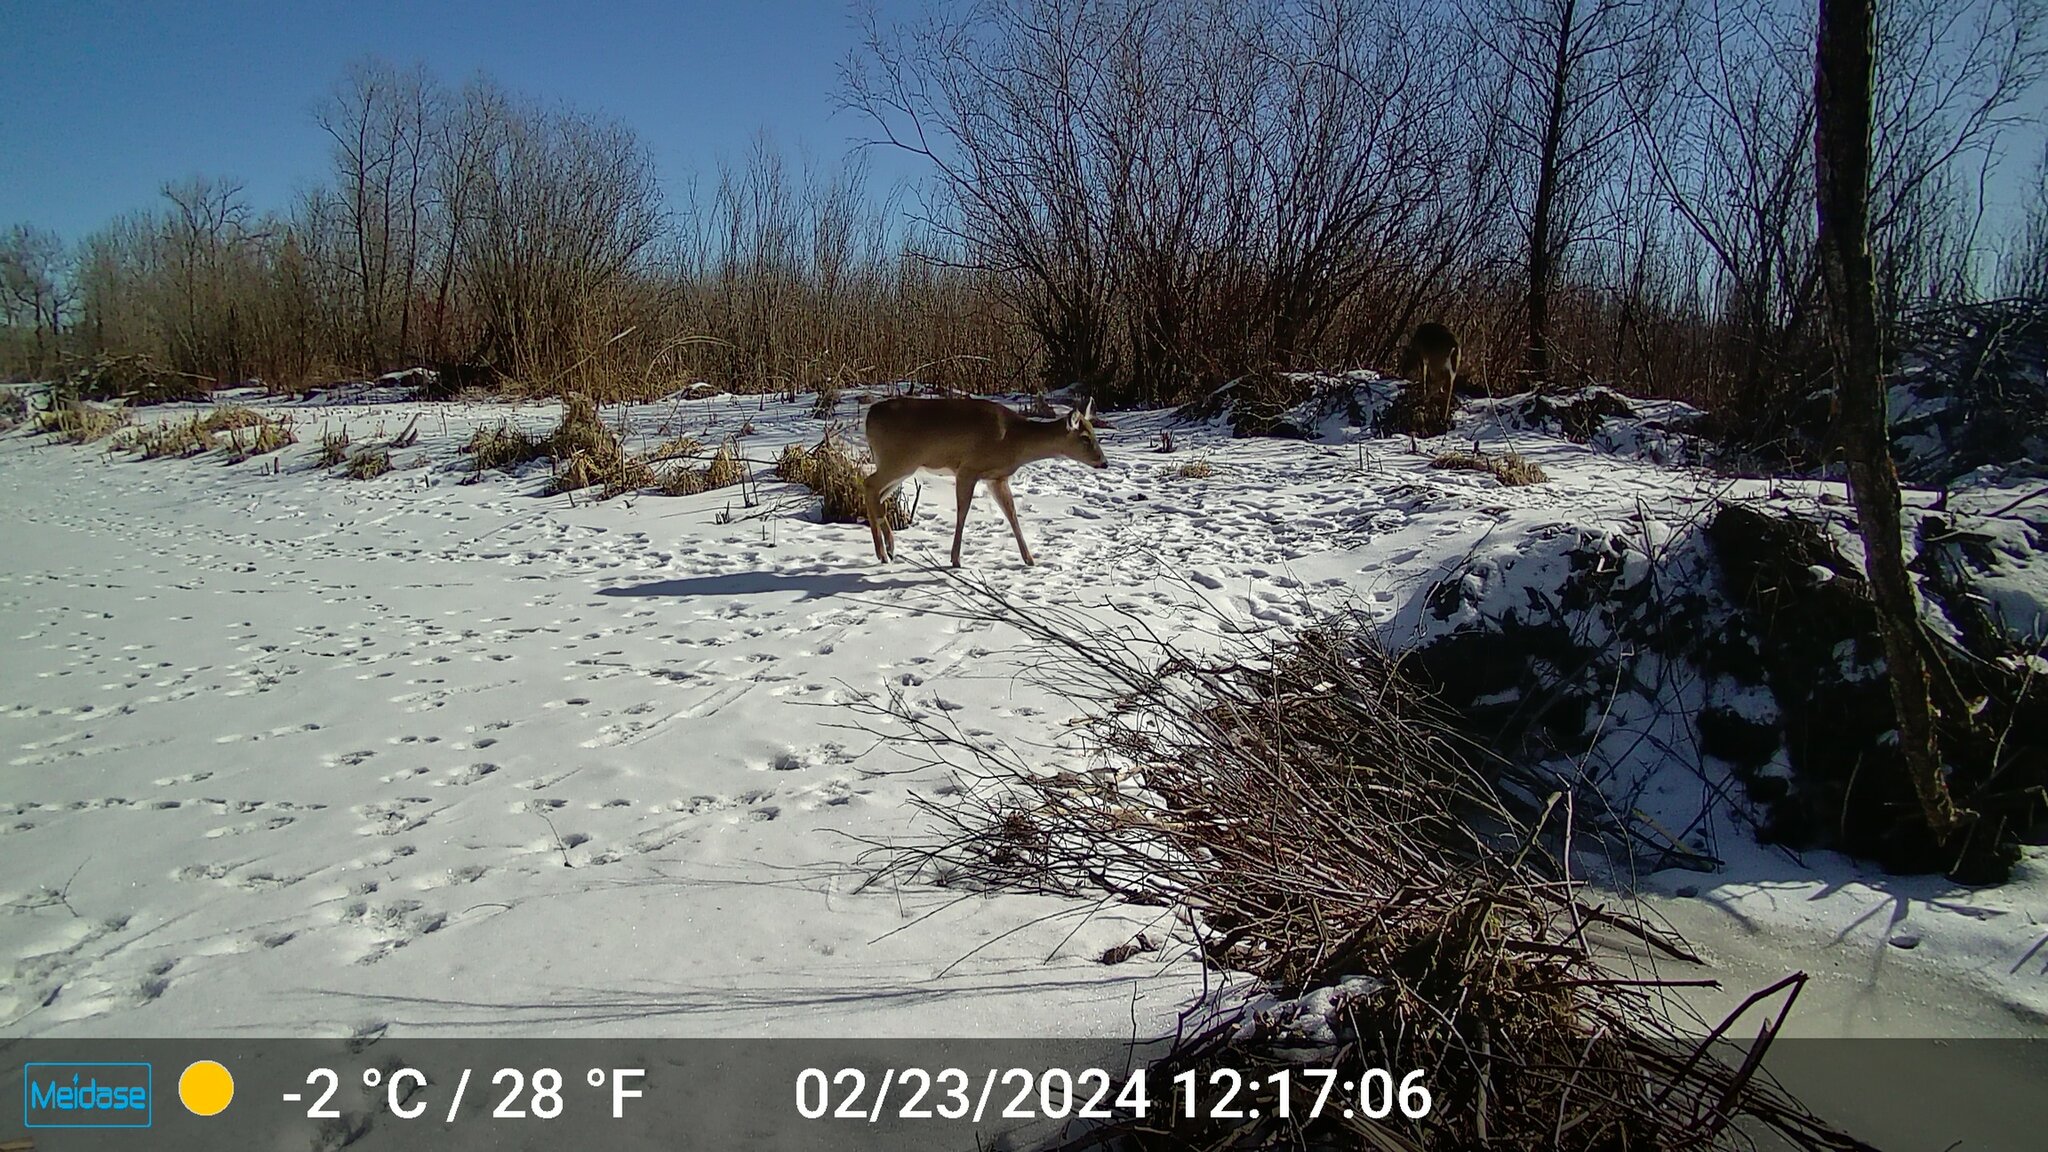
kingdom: Animalia
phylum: Chordata
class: Mammalia
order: Artiodactyla
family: Cervidae
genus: Odocoileus
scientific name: Odocoileus virginianus
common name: White-tailed deer
